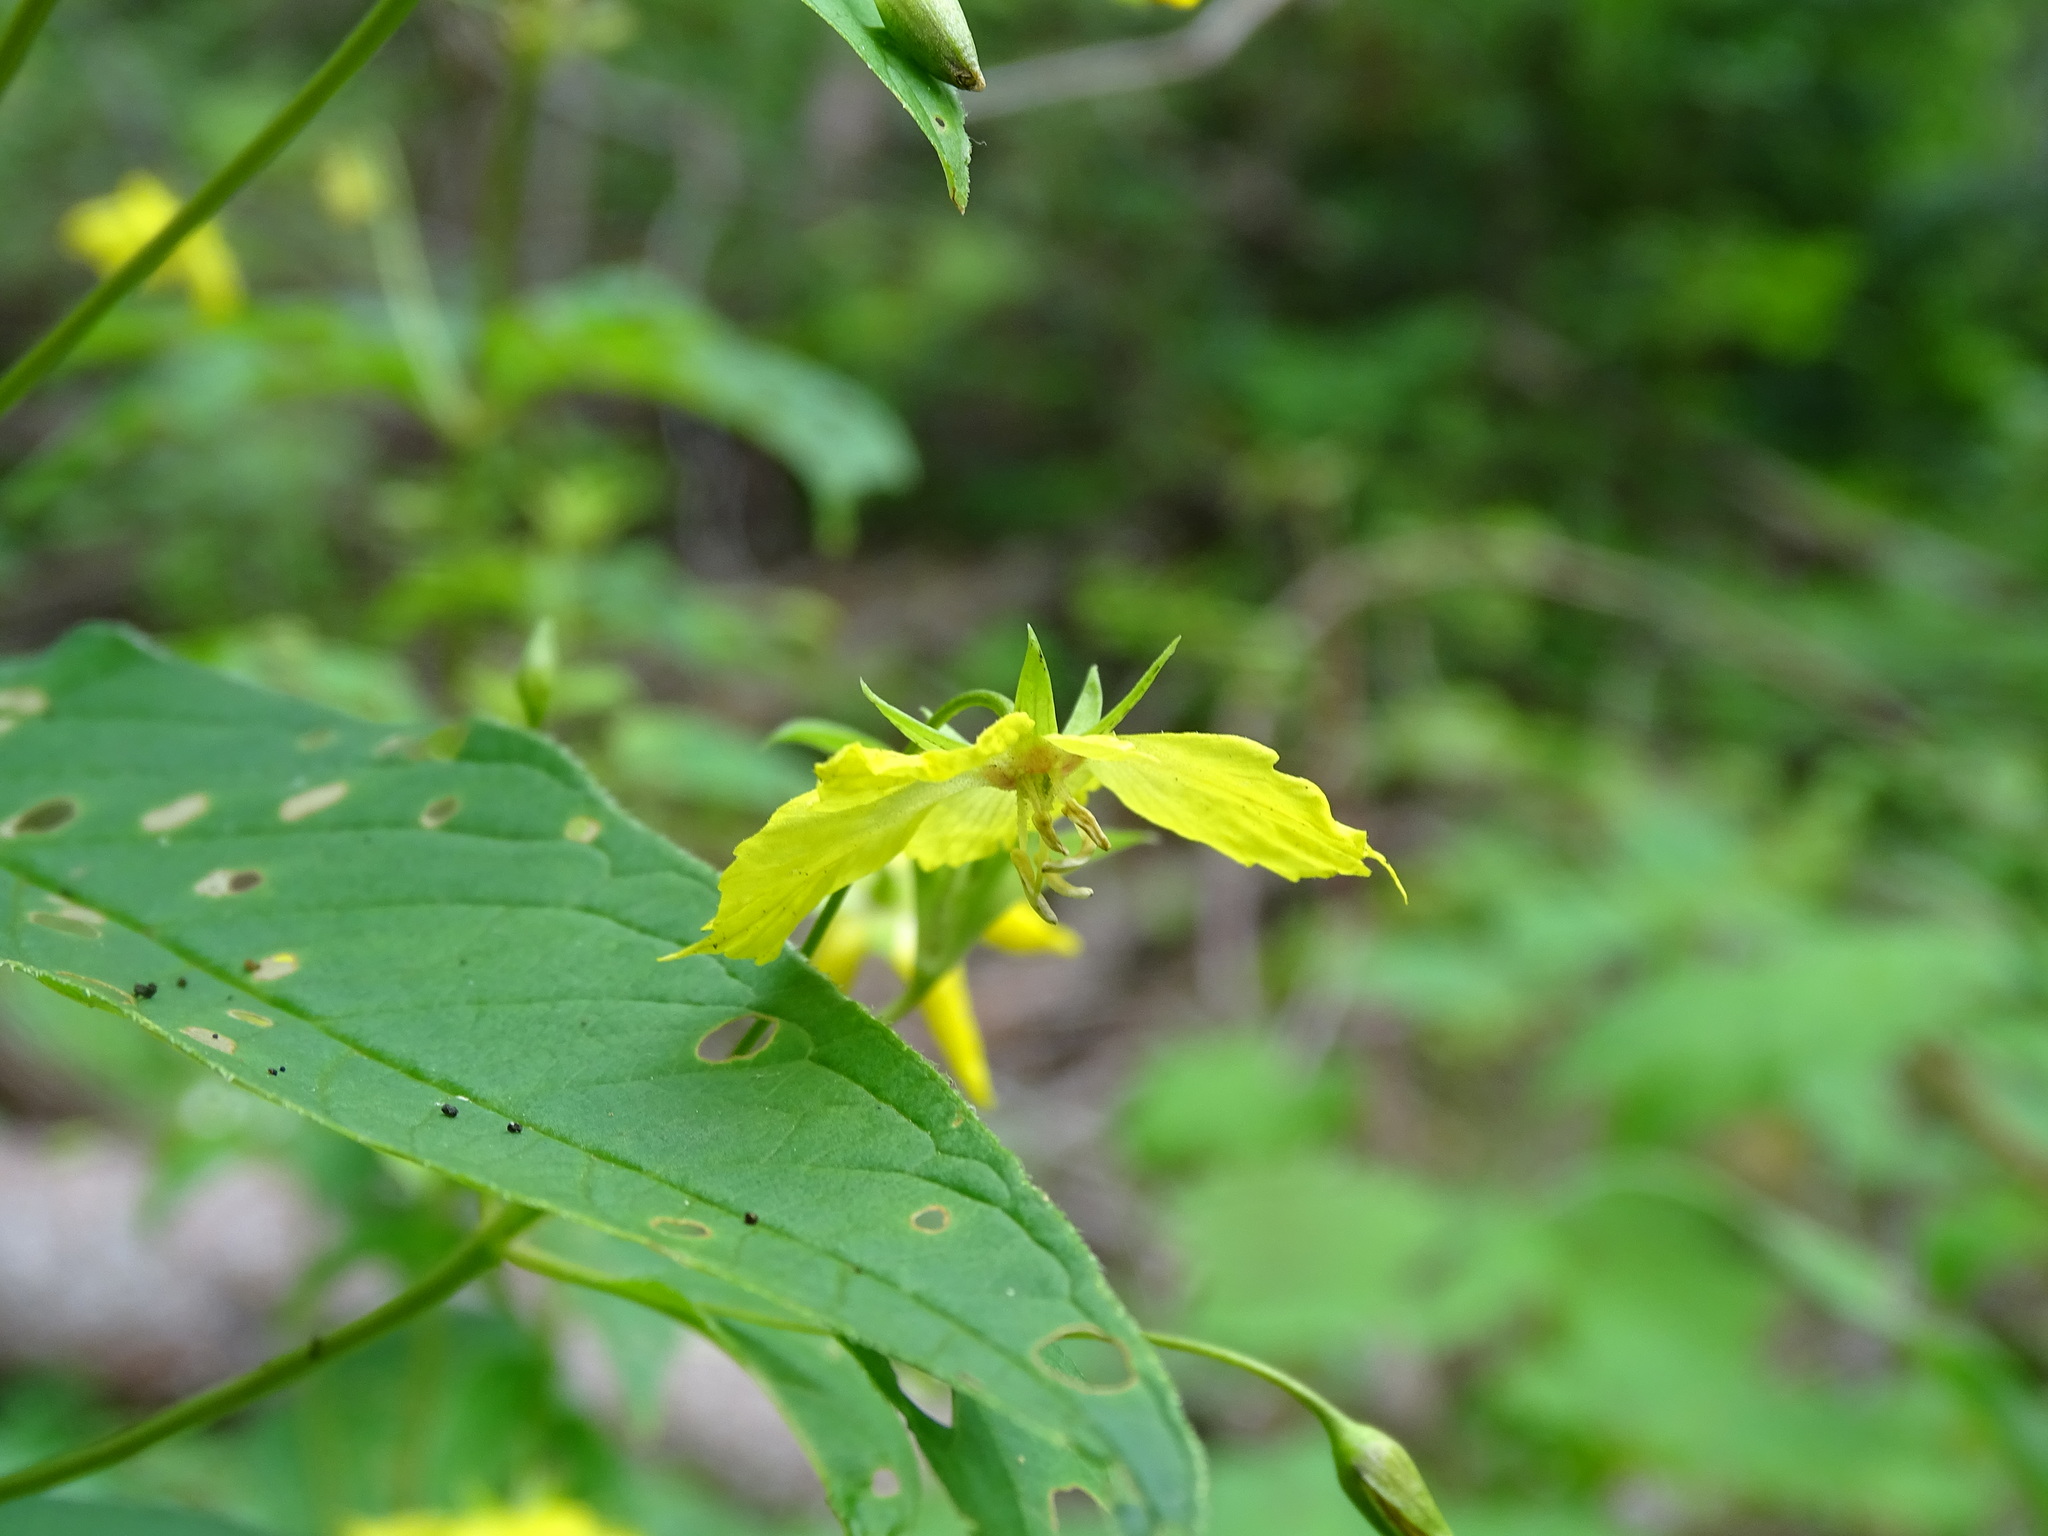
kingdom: Plantae
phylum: Tracheophyta
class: Magnoliopsida
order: Ericales
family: Primulaceae
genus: Lysimachia
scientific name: Lysimachia ciliata
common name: Fringed loosestrife
